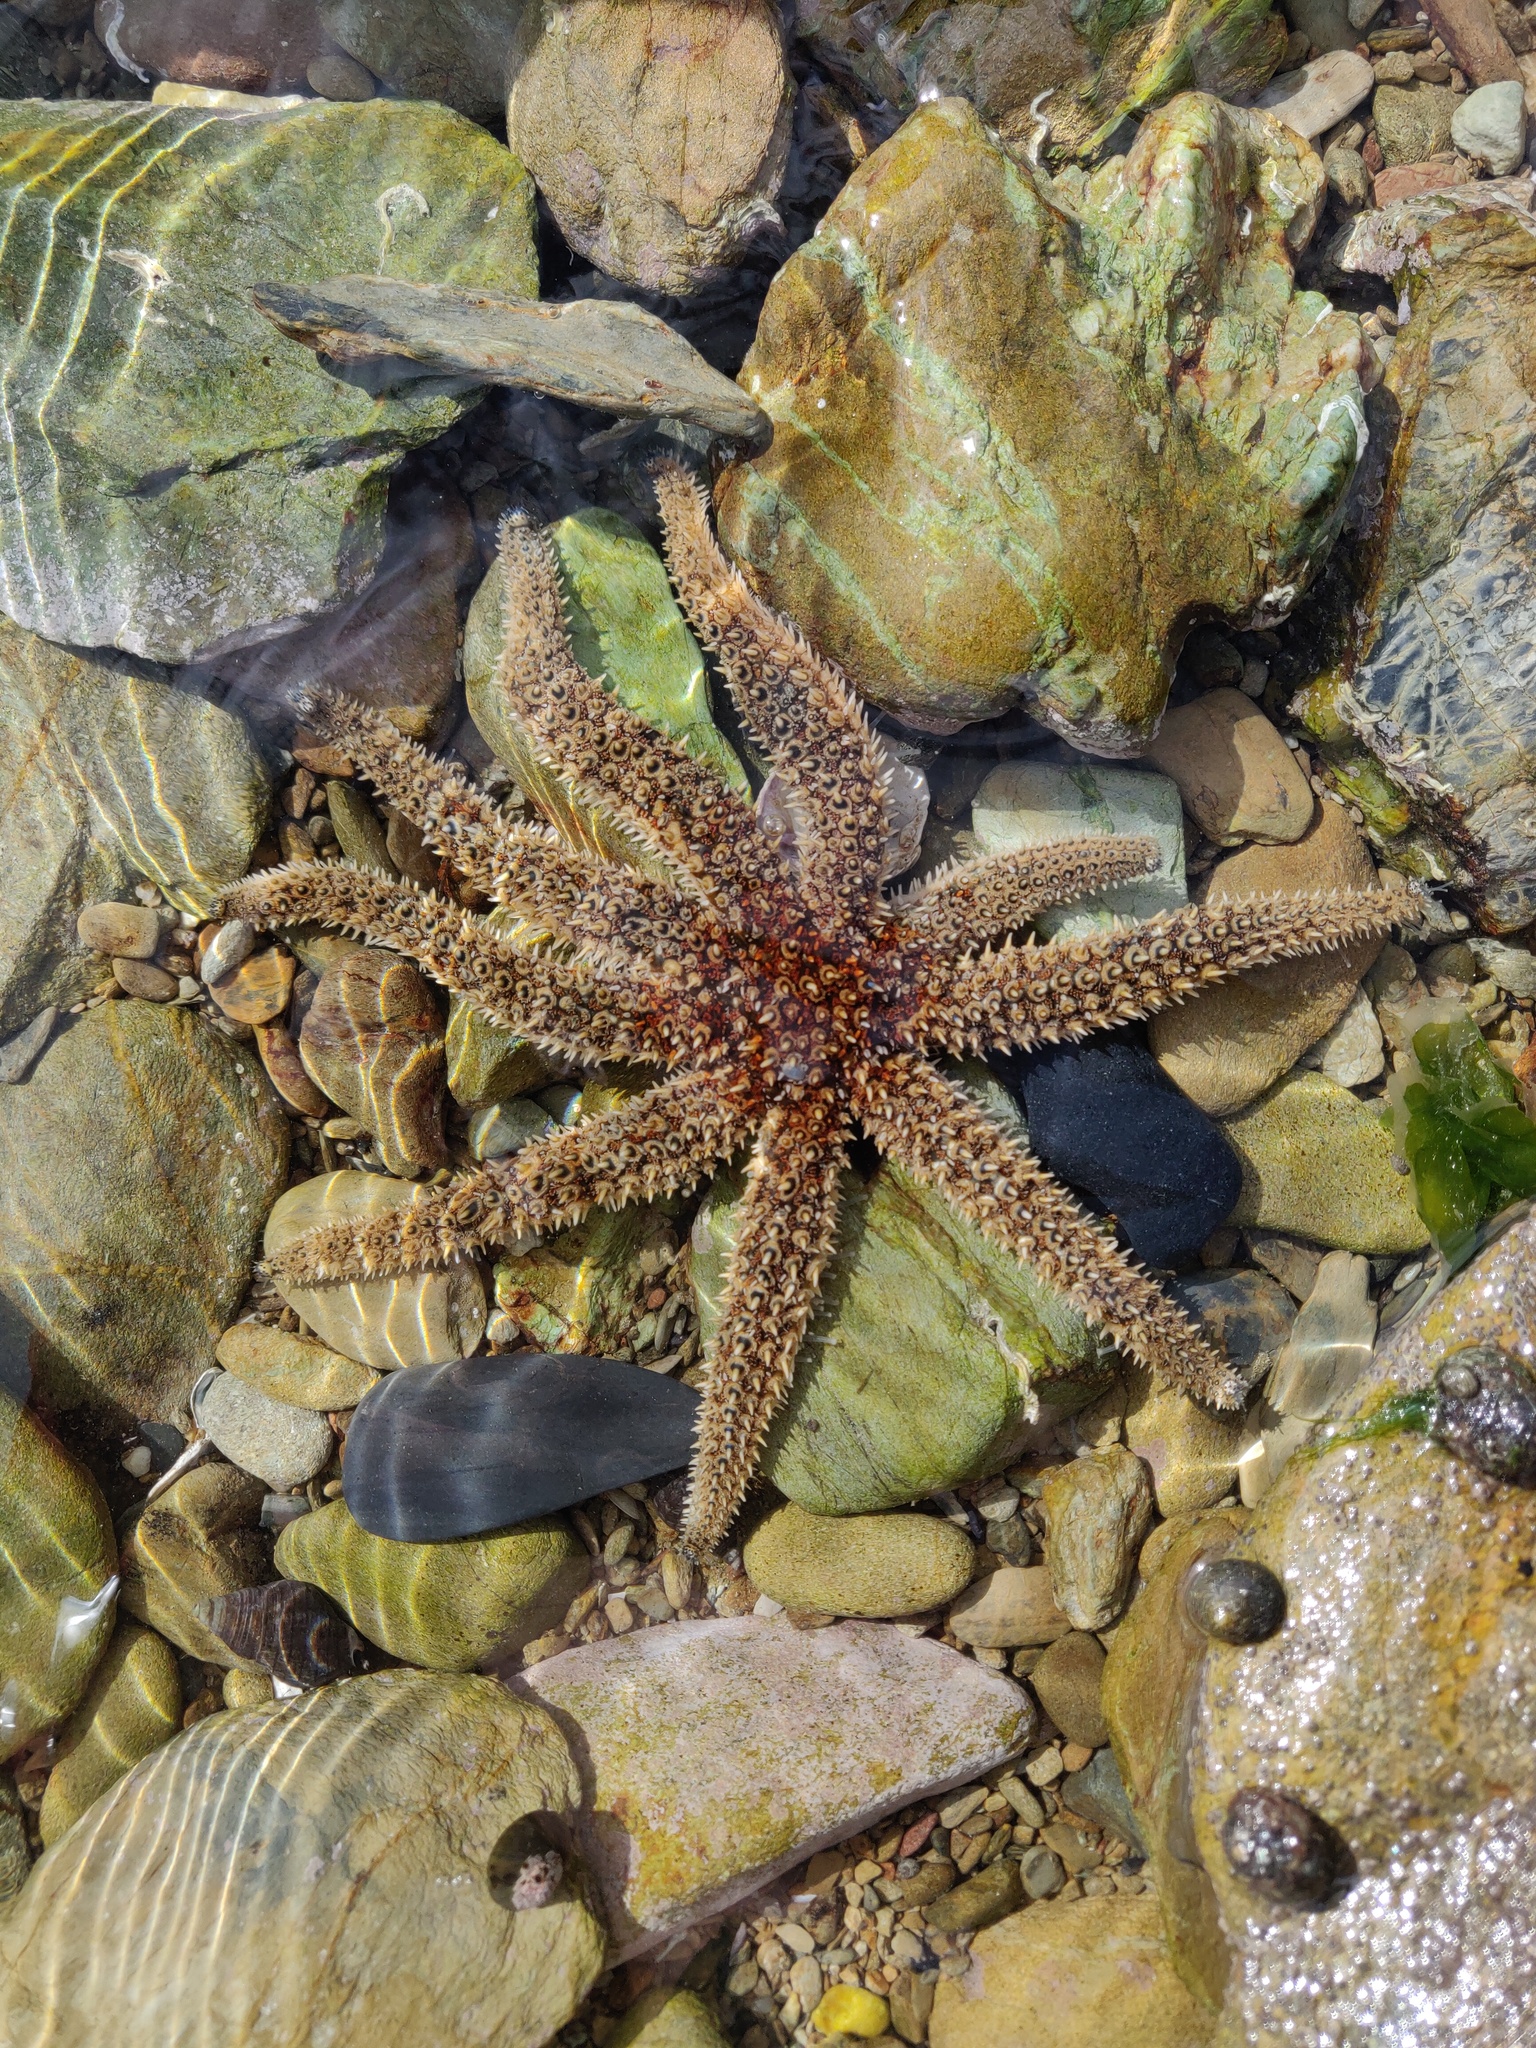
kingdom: Animalia
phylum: Echinodermata
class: Asteroidea
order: Forcipulatida
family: Asteriidae
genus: Coscinasterias
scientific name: Coscinasterias muricata
